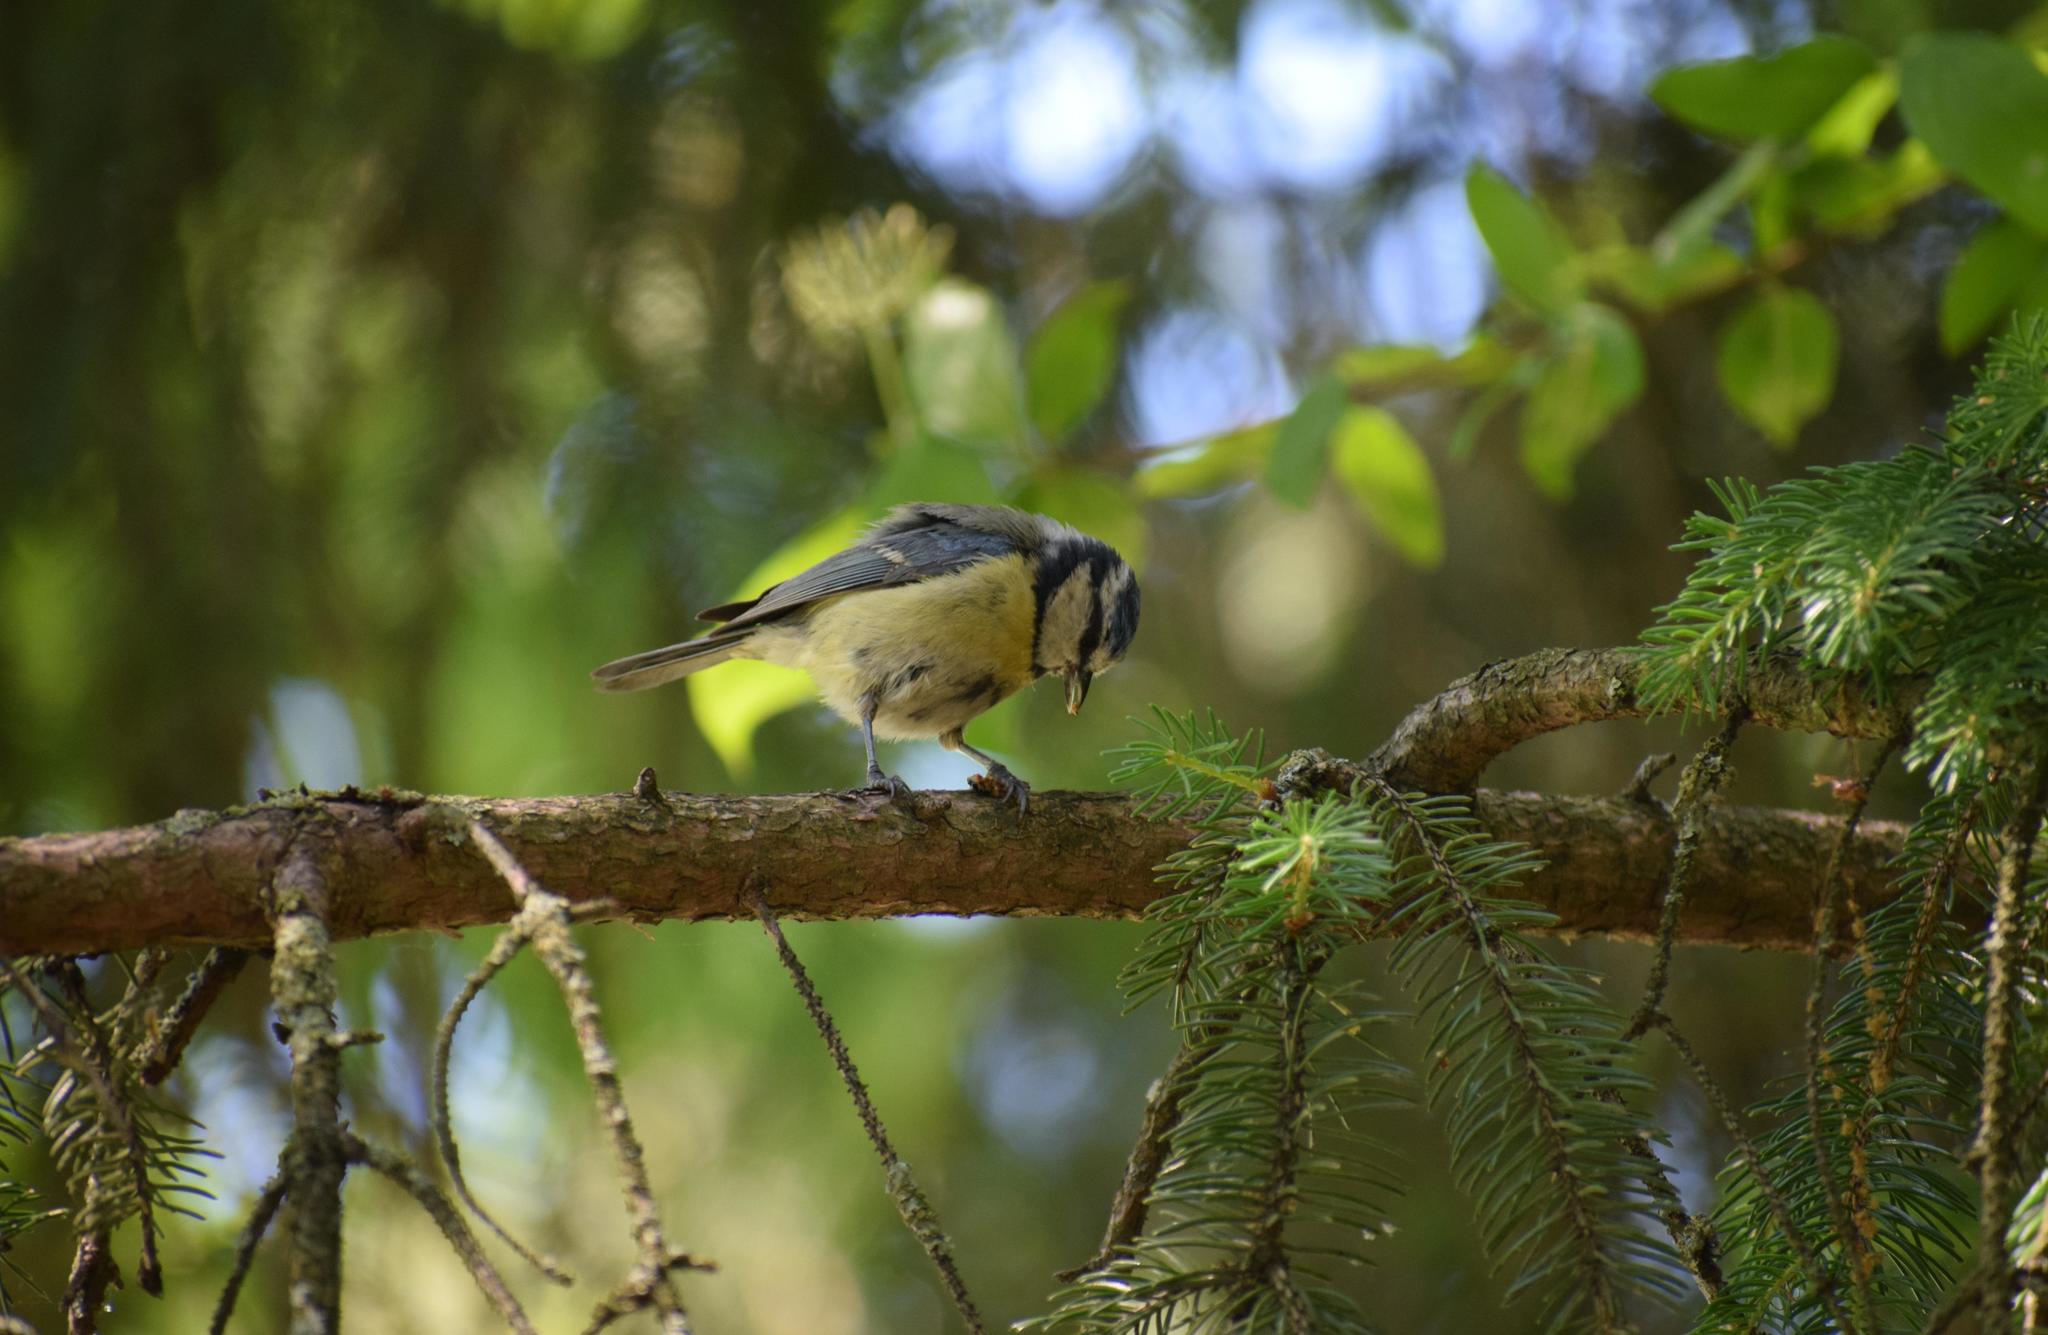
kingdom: Animalia
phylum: Chordata
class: Aves
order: Passeriformes
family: Paridae
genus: Cyanistes
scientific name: Cyanistes caeruleus
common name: Eurasian blue tit
